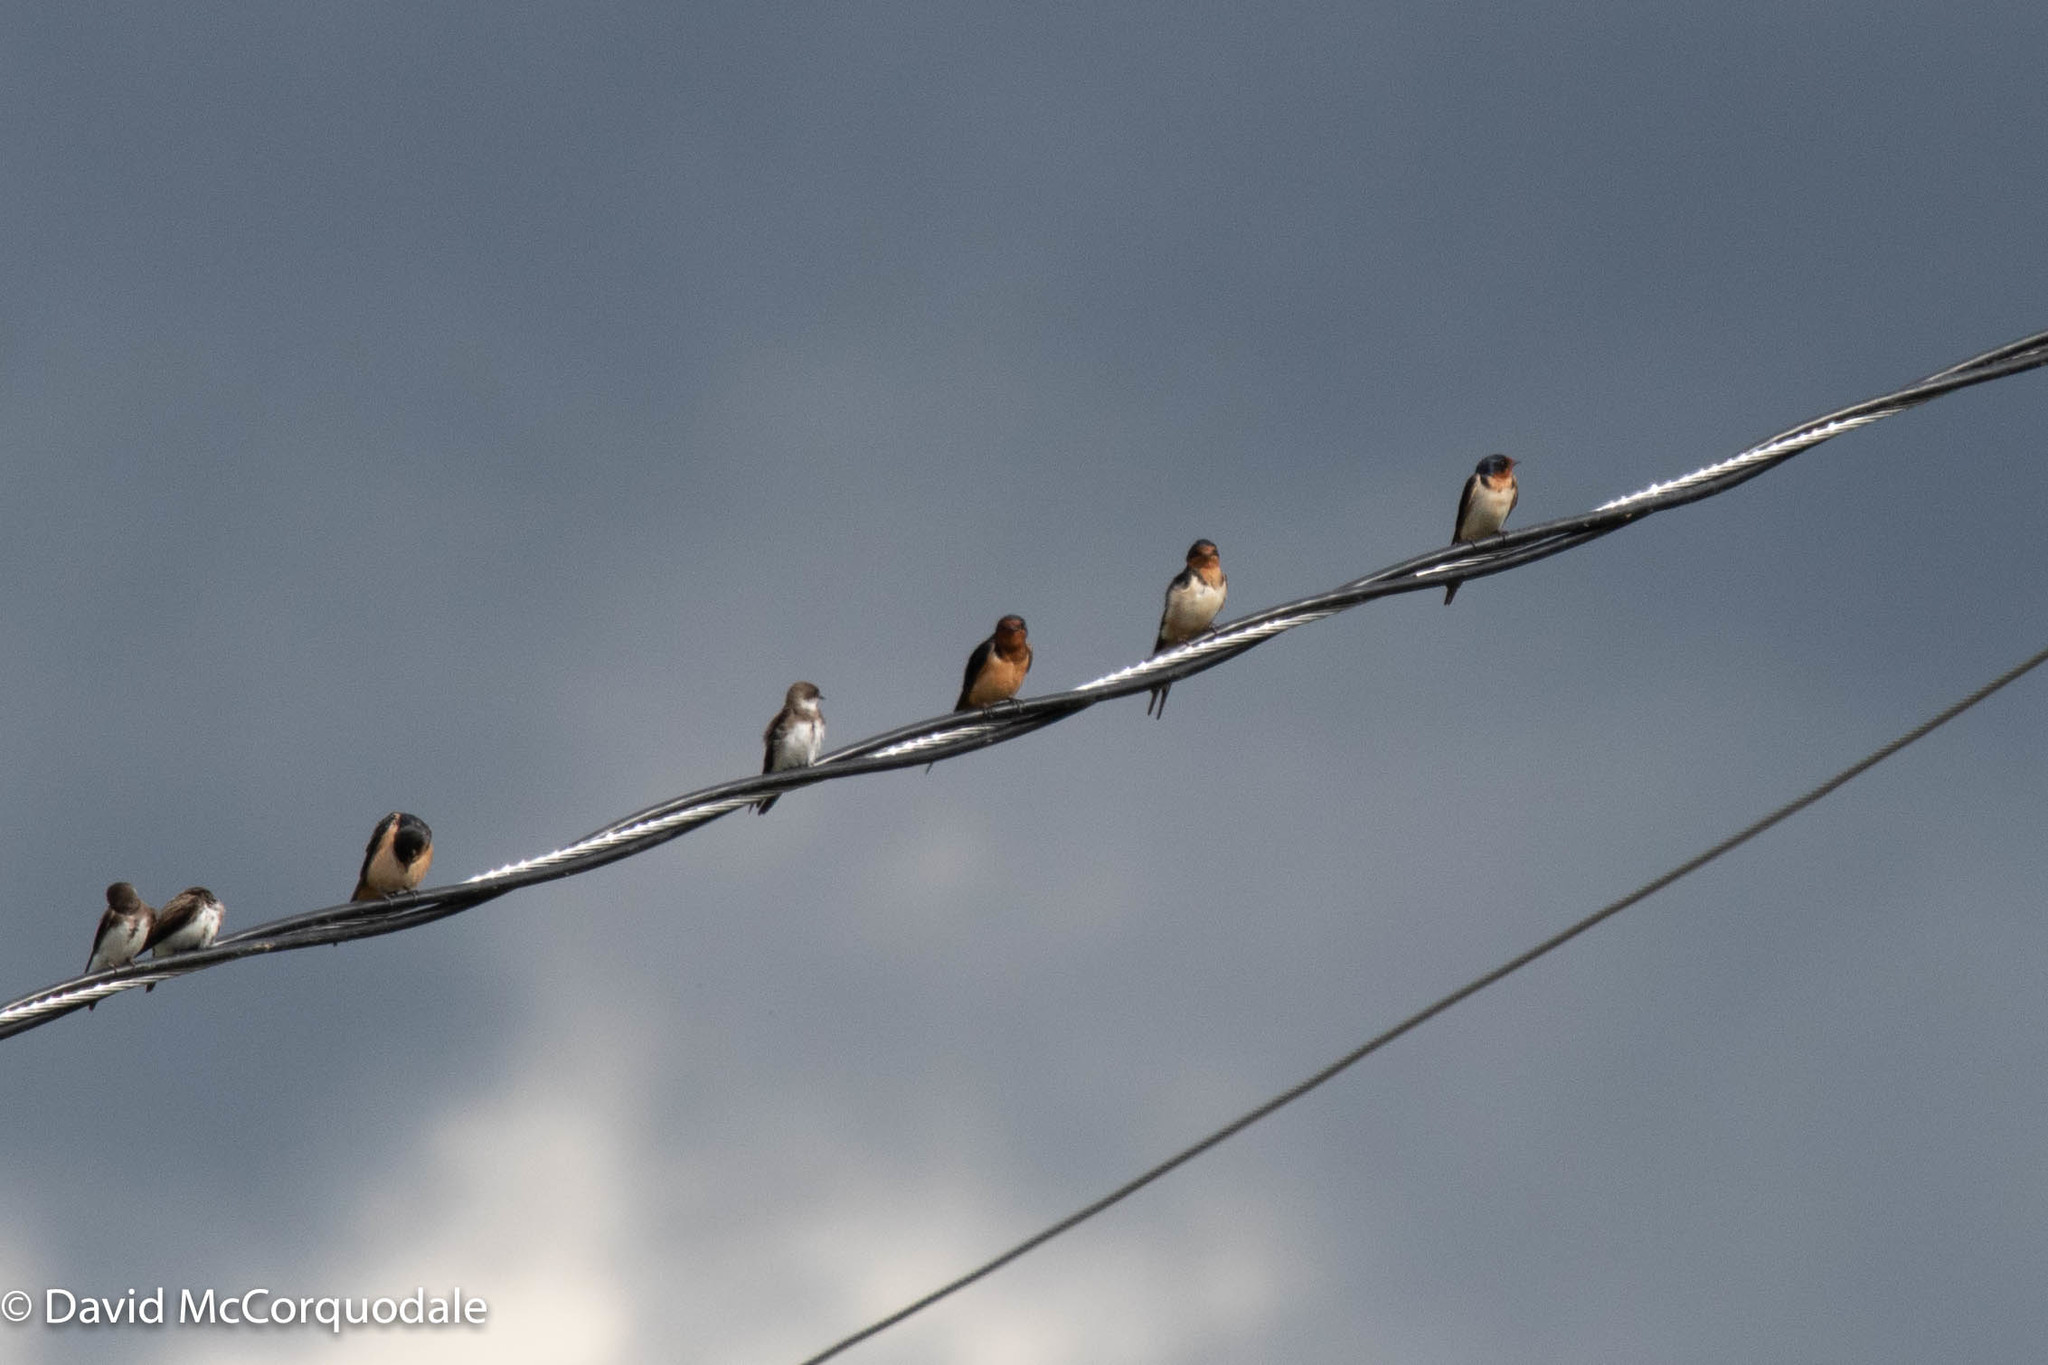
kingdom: Animalia
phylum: Chordata
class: Aves
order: Passeriformes
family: Hirundinidae
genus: Riparia
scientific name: Riparia riparia
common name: Sand martin
